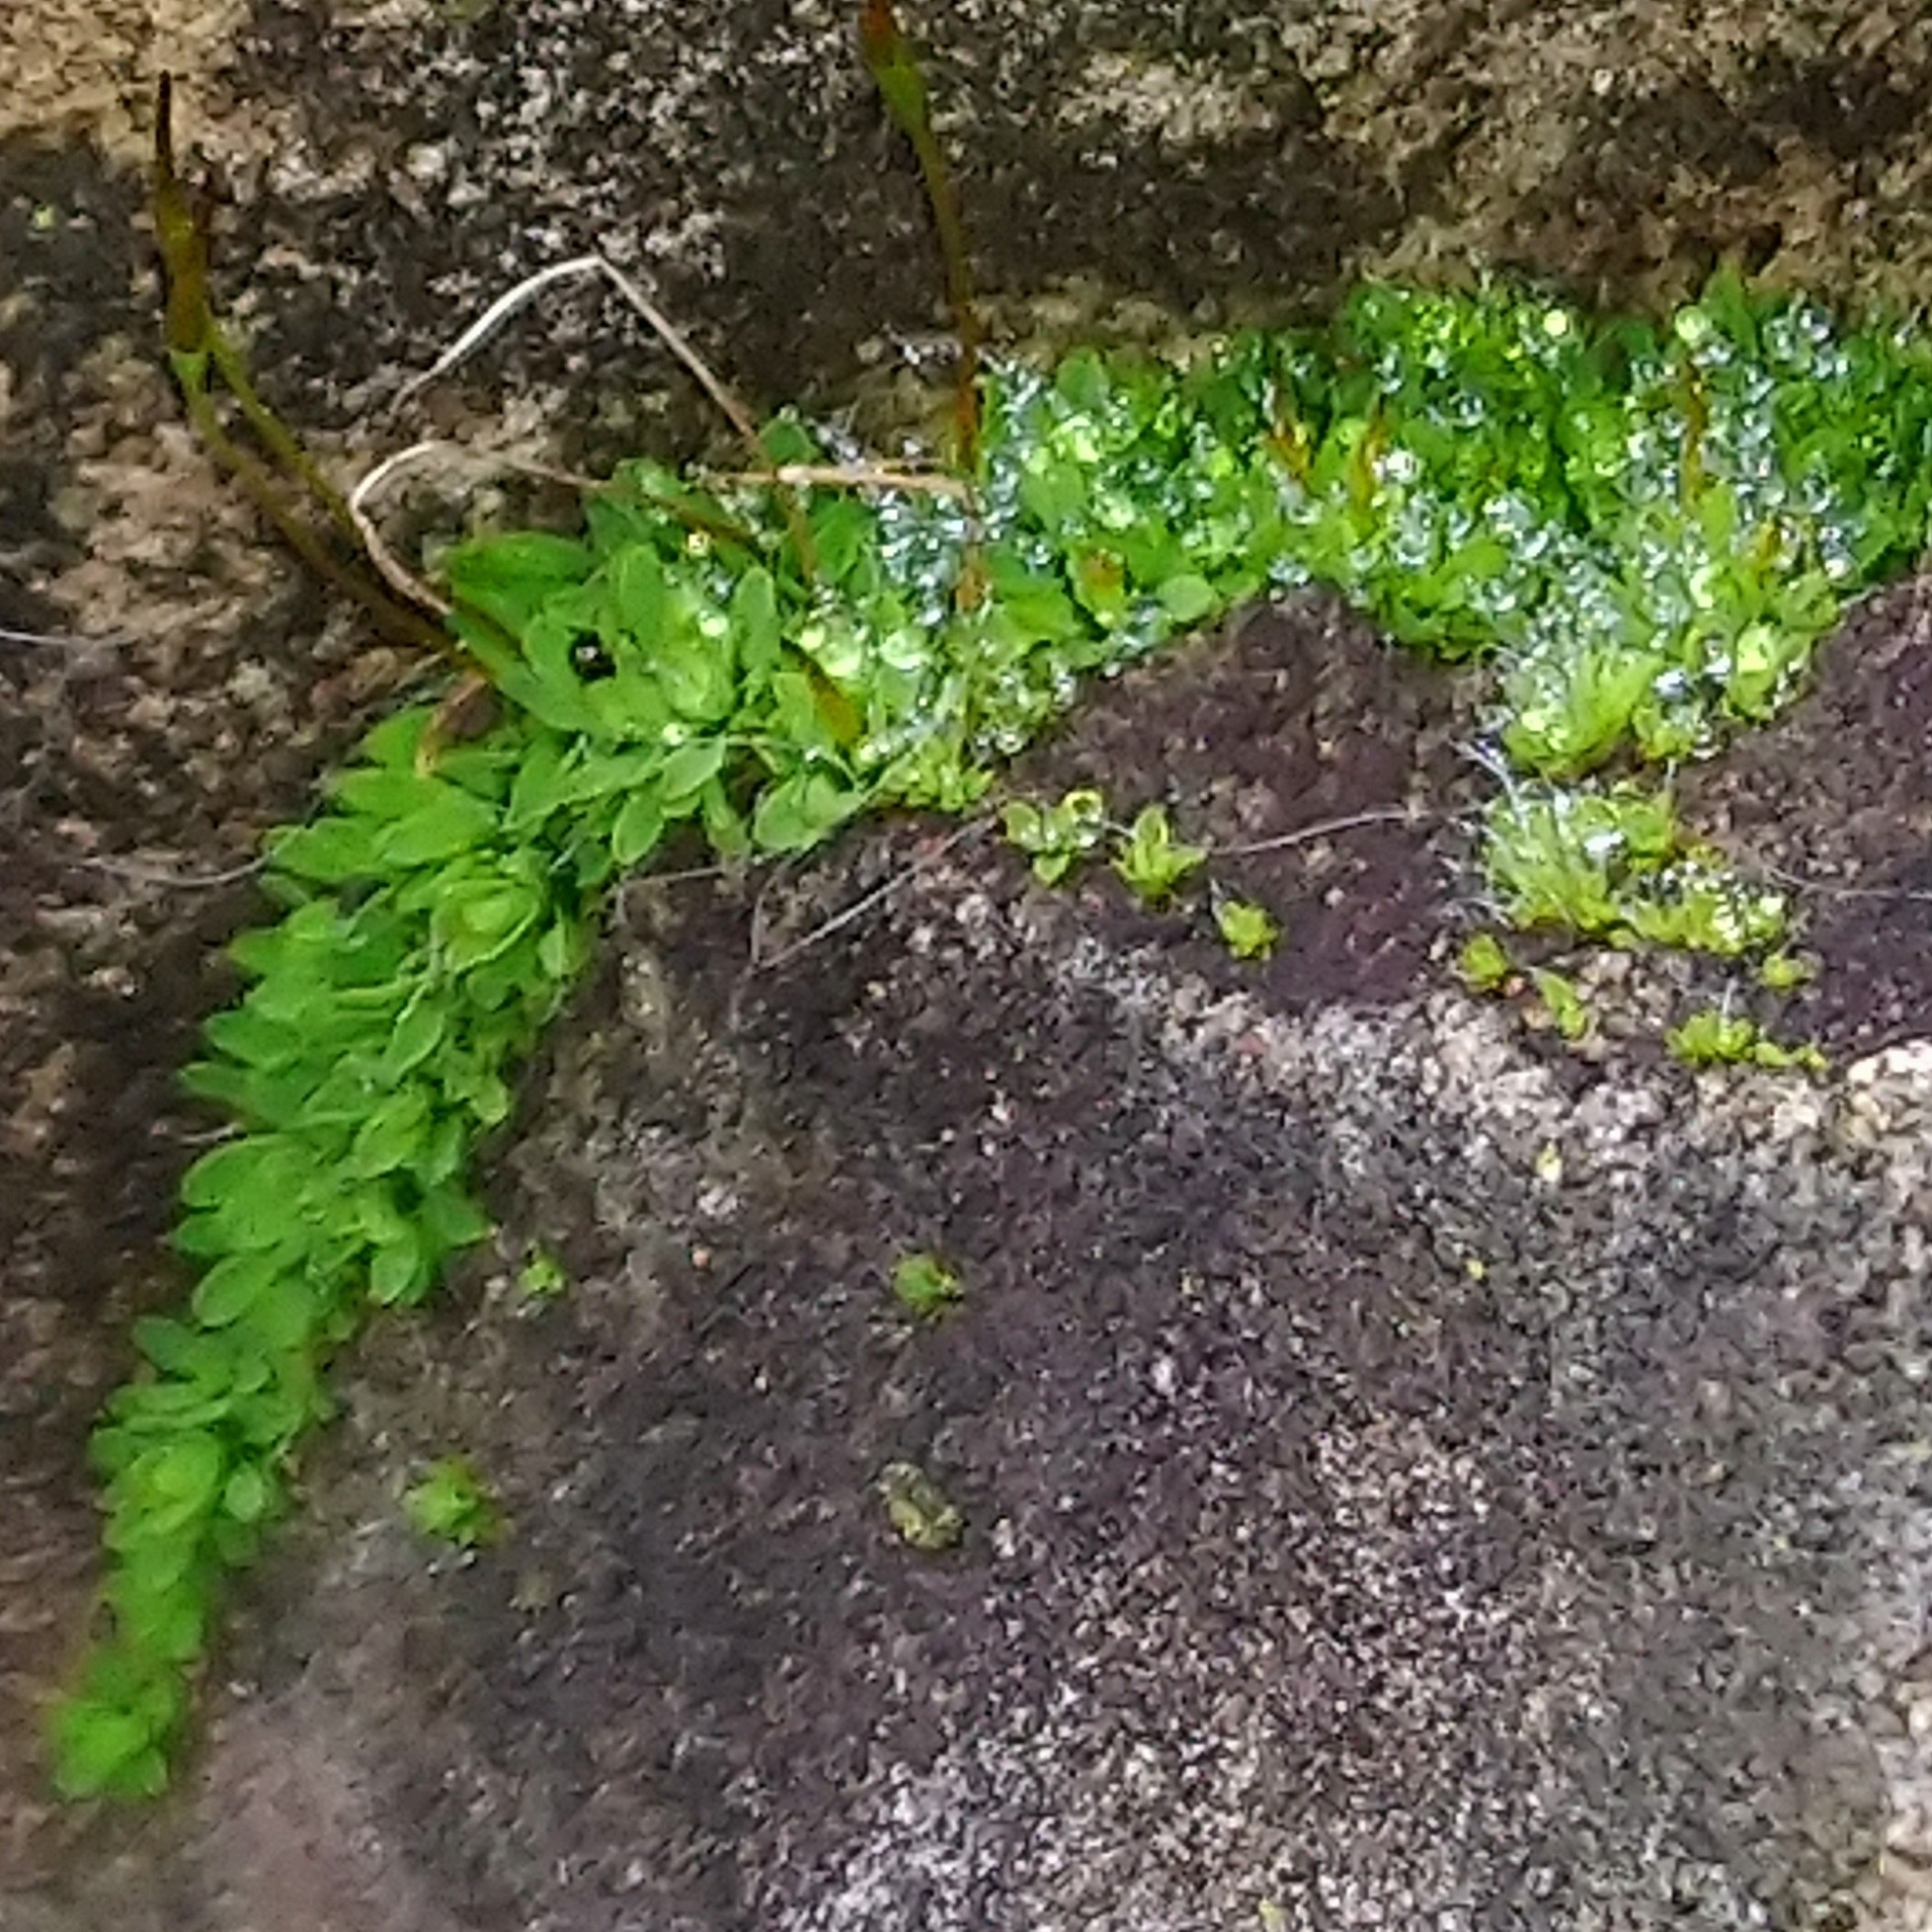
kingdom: Plantae
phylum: Bryophyta
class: Bryopsida
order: Pottiales
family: Pottiaceae
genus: Tortula
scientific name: Tortula muralis
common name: Wall screw-moss
